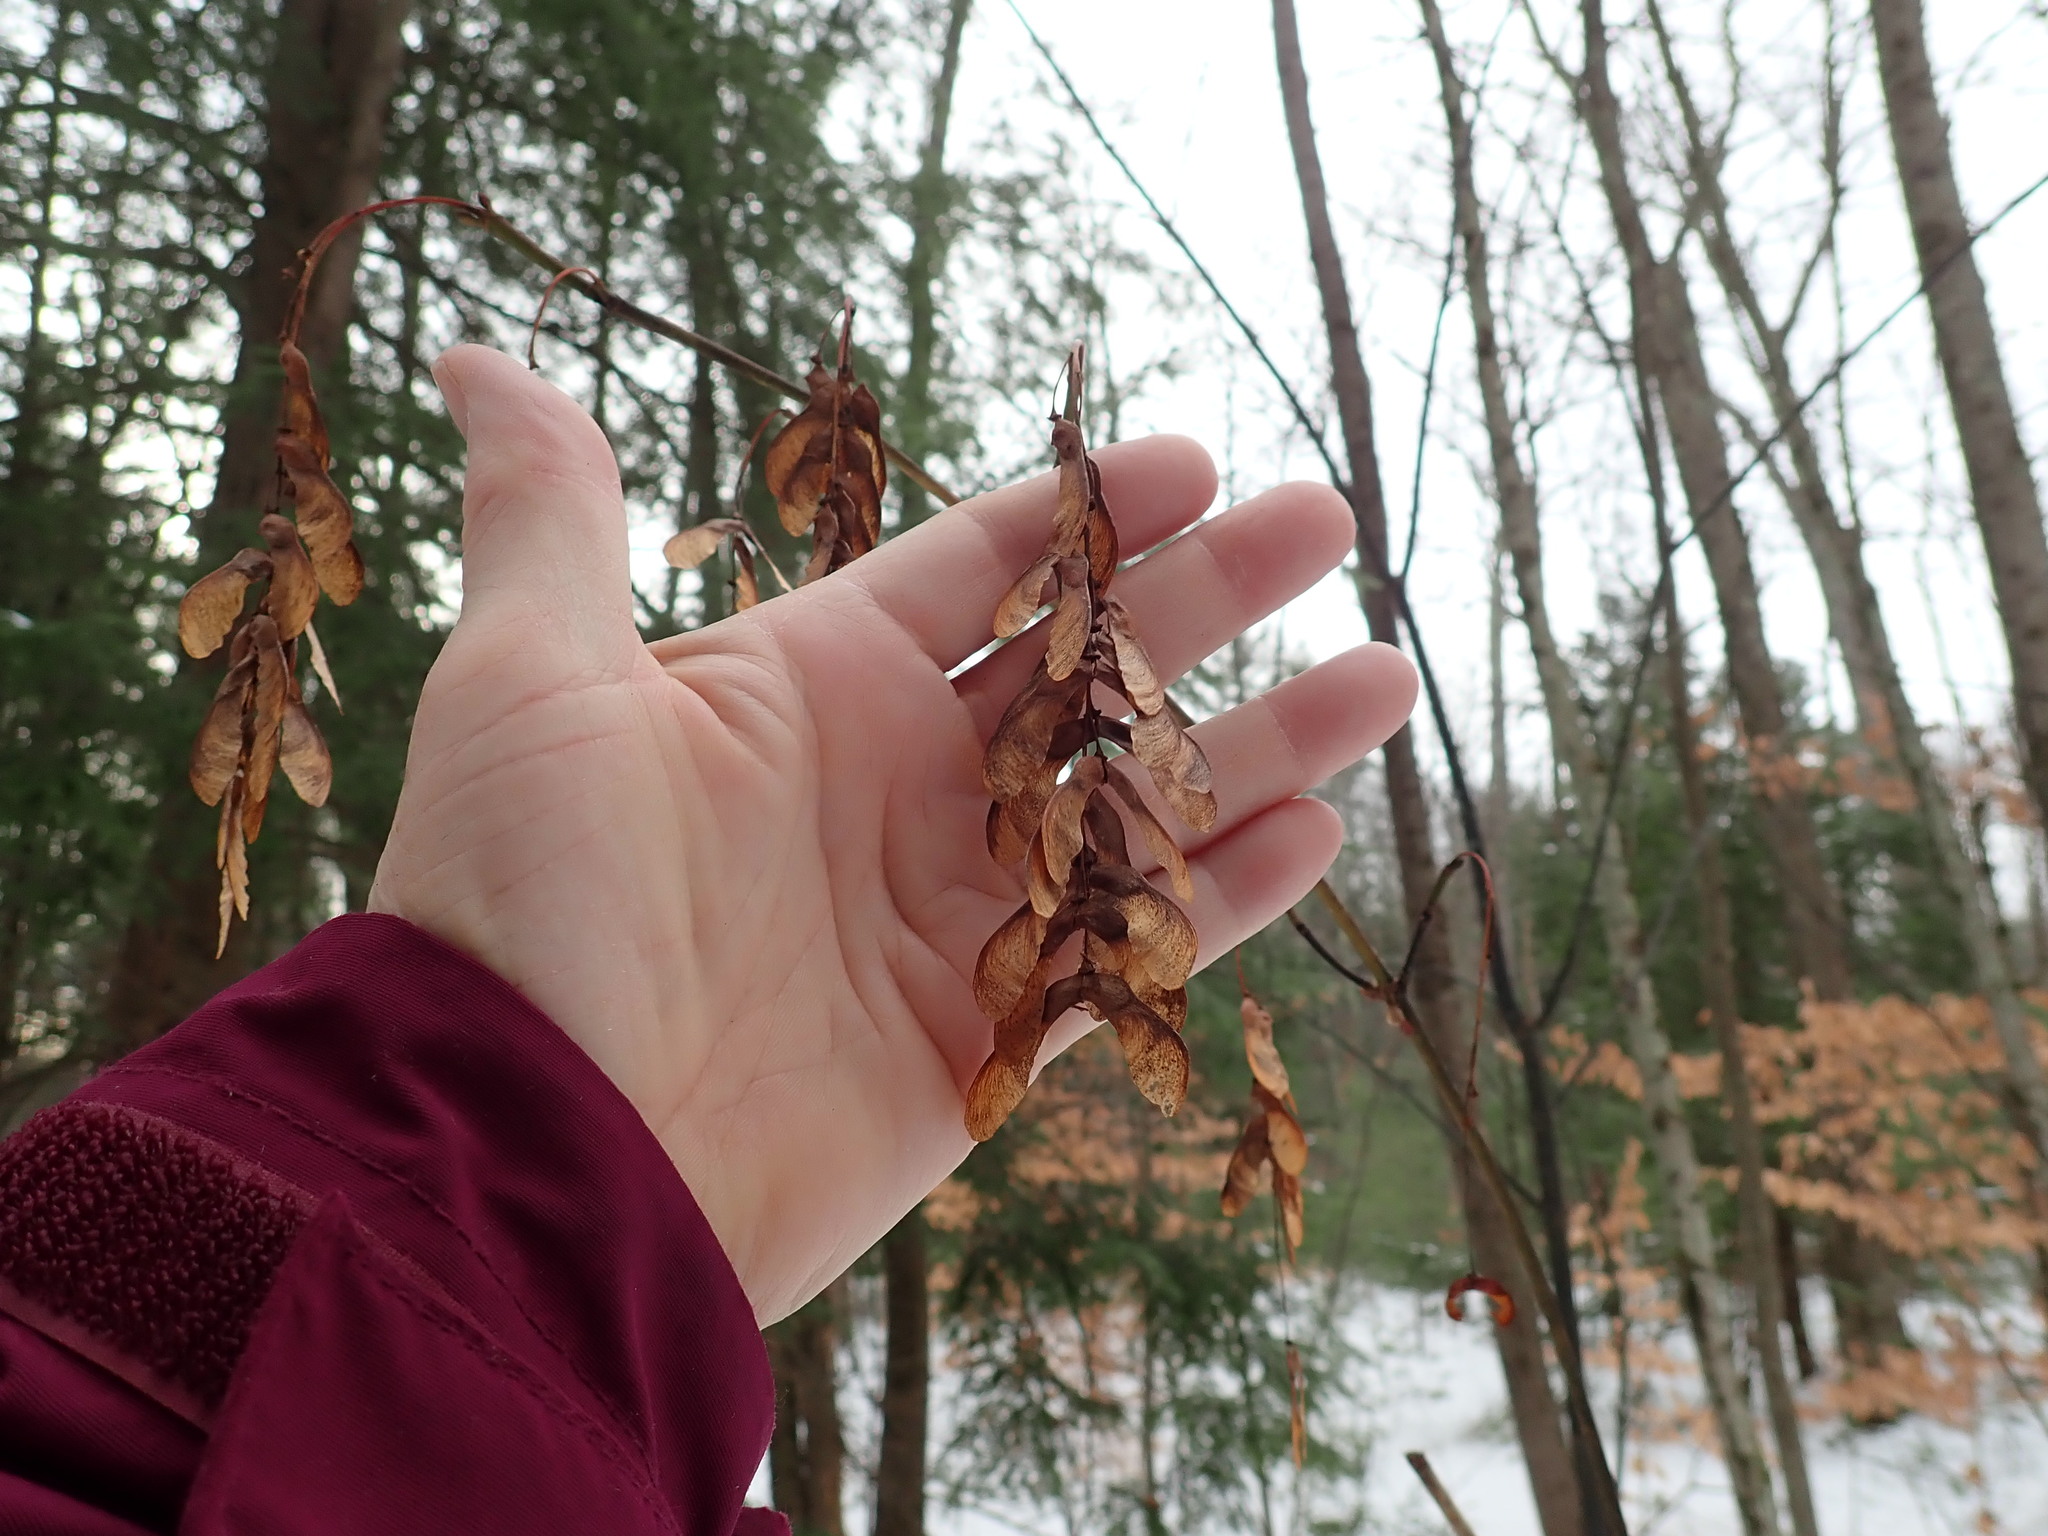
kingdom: Plantae
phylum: Tracheophyta
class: Magnoliopsida
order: Sapindales
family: Sapindaceae
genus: Acer
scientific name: Acer pensylvanicum
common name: Moosewood
